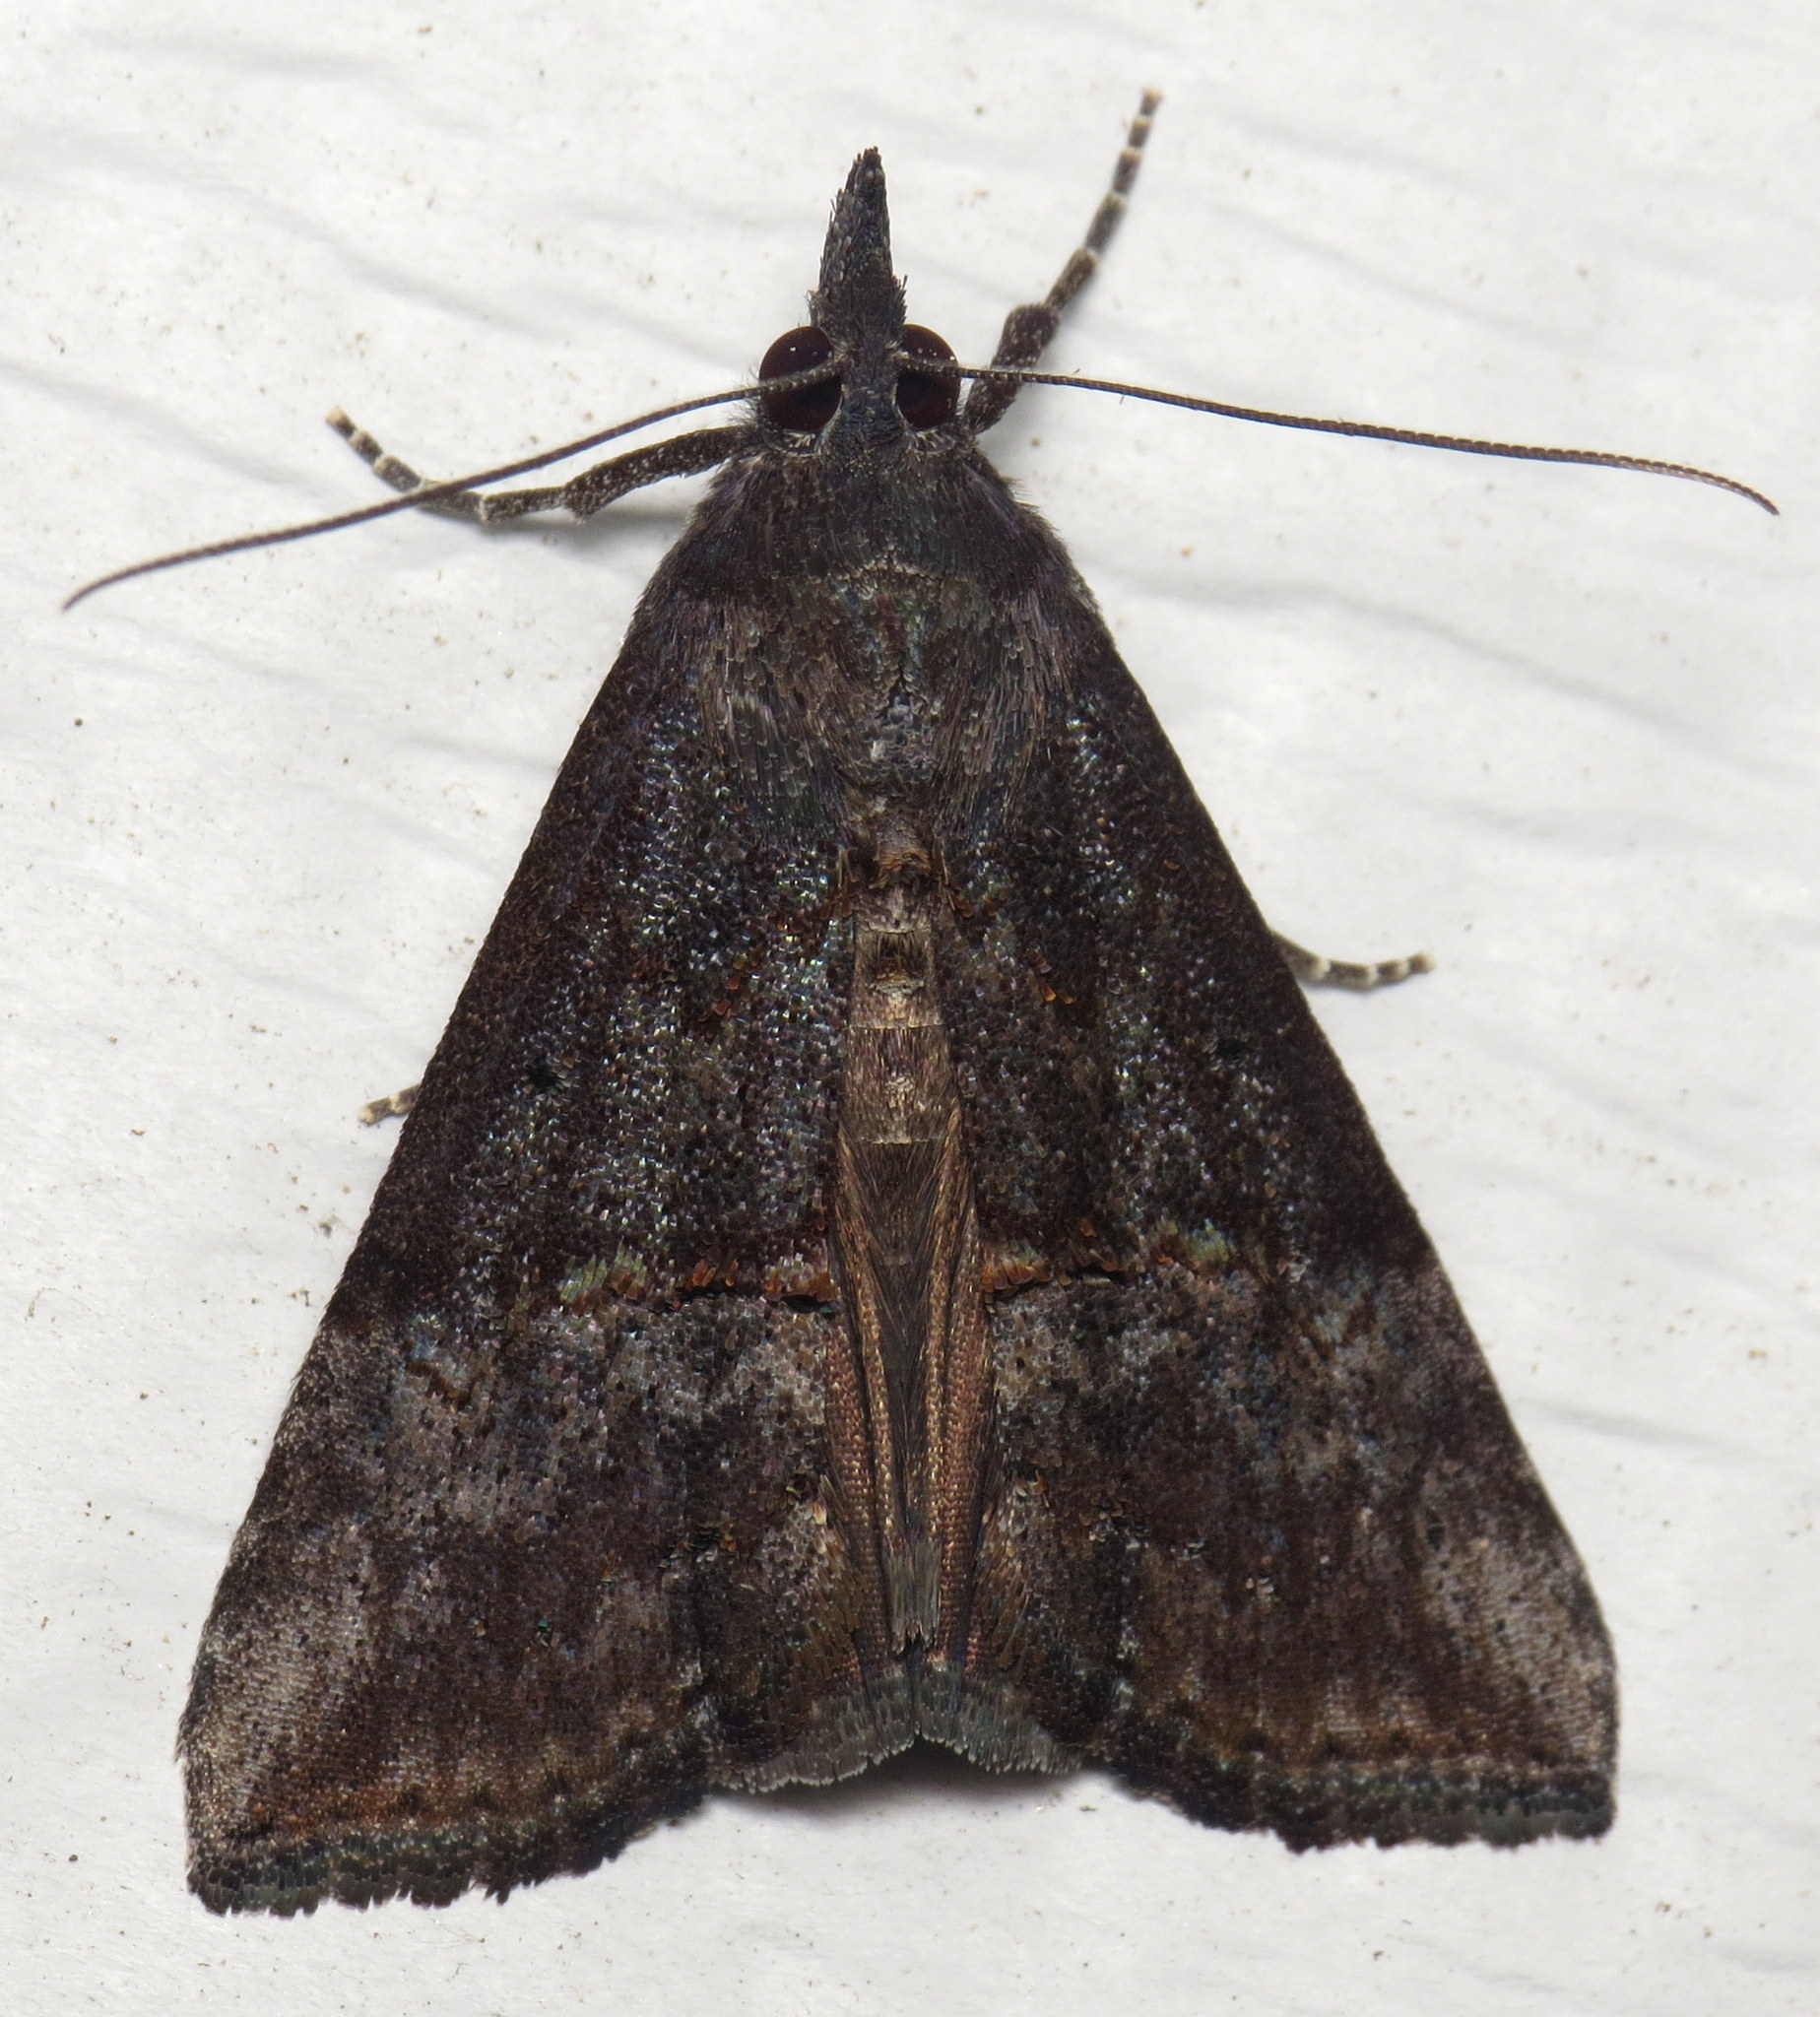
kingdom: Animalia
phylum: Arthropoda
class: Insecta
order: Lepidoptera
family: Erebidae
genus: Hypena
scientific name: Hypena scabra
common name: Green cloverworm
